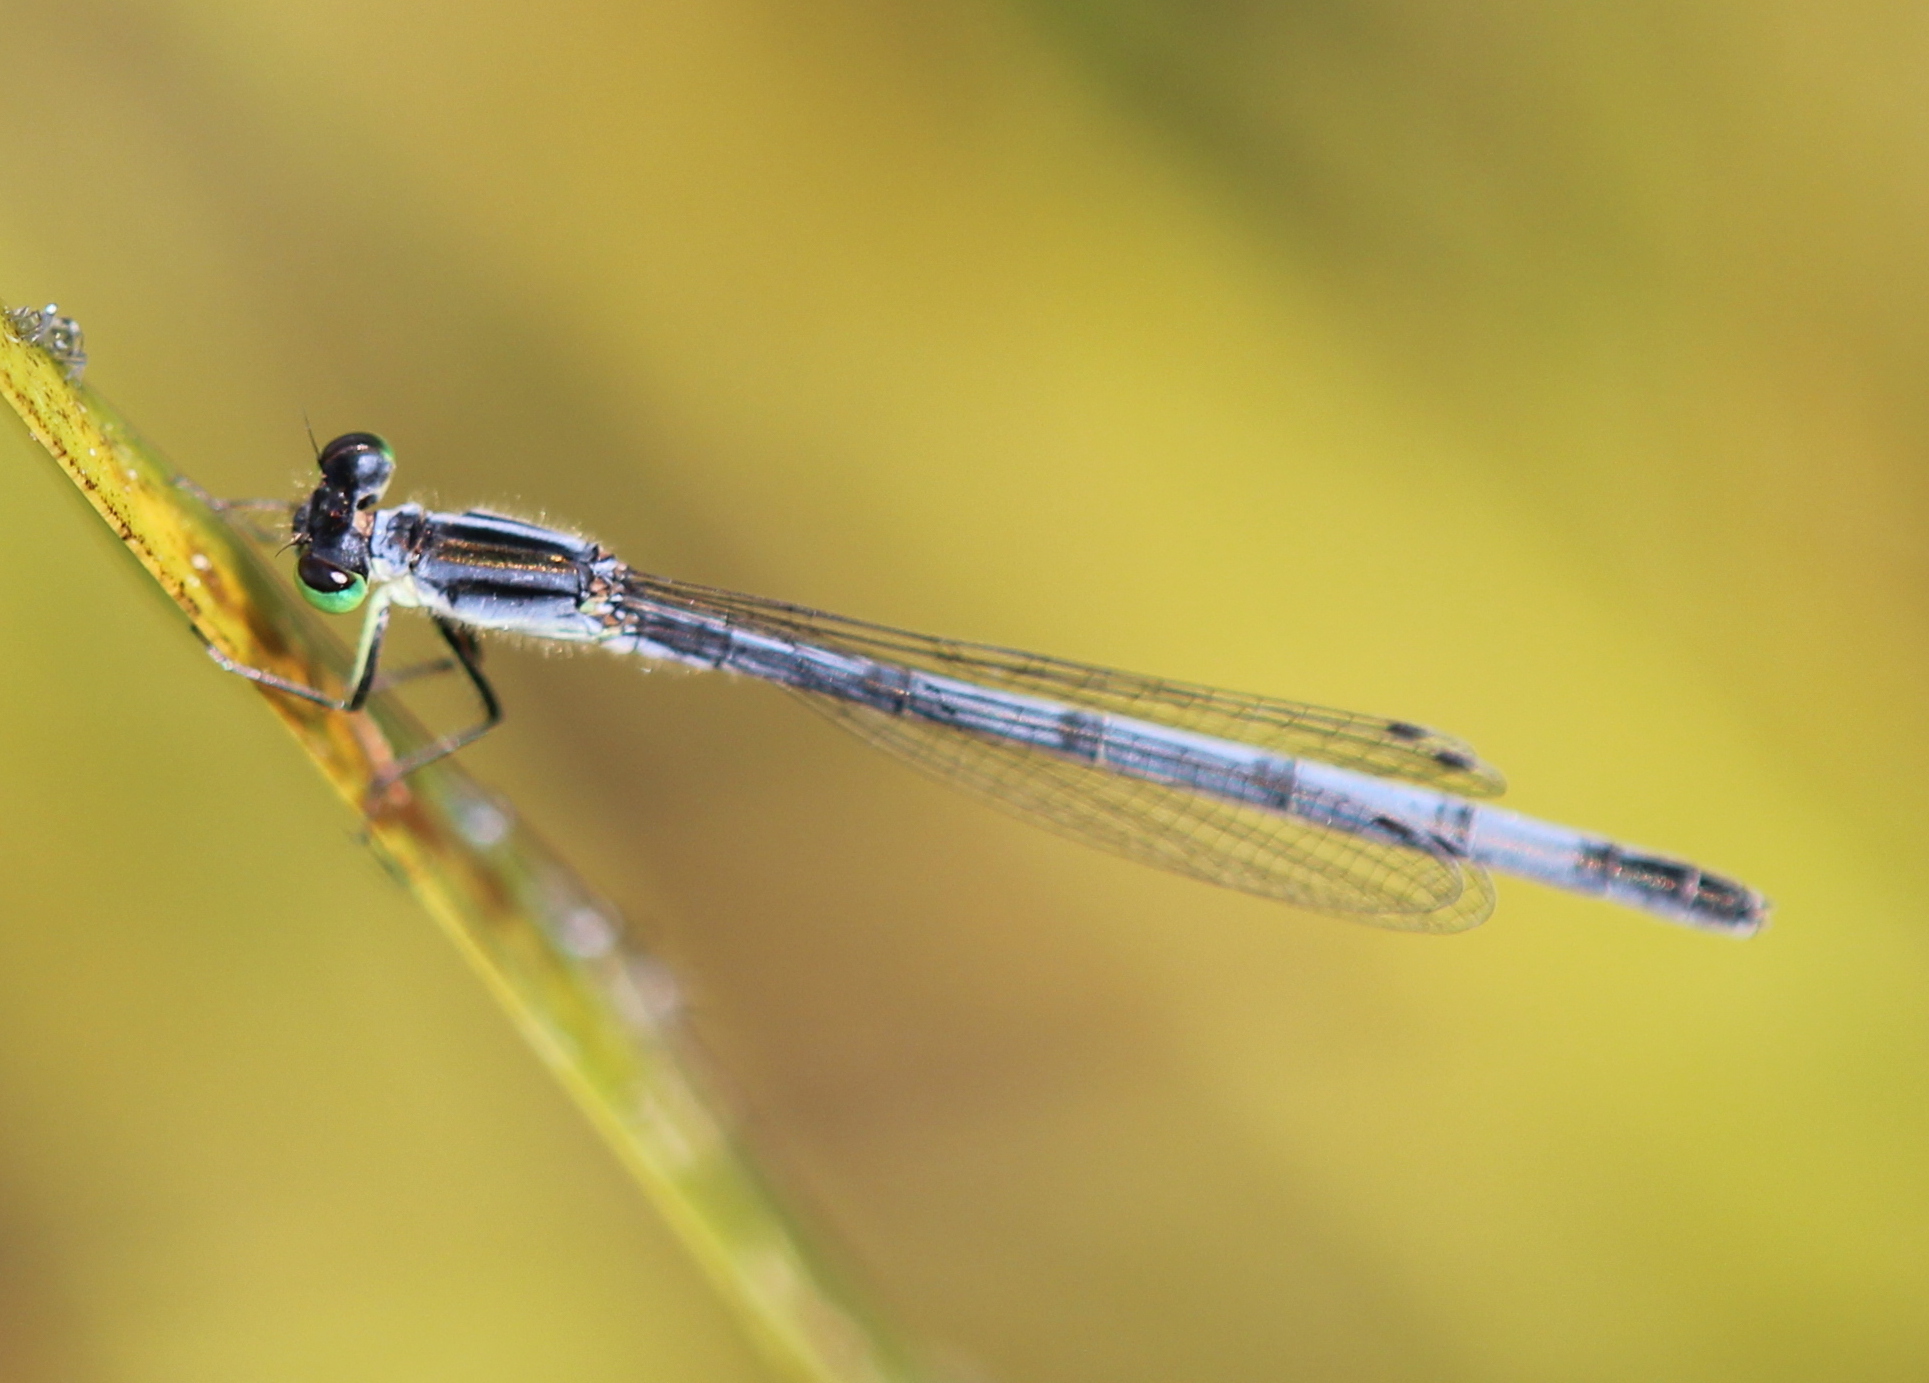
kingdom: Animalia
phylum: Arthropoda
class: Insecta
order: Odonata
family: Coenagrionidae
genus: Ischnura
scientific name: Ischnura verticalis
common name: Eastern forktail
